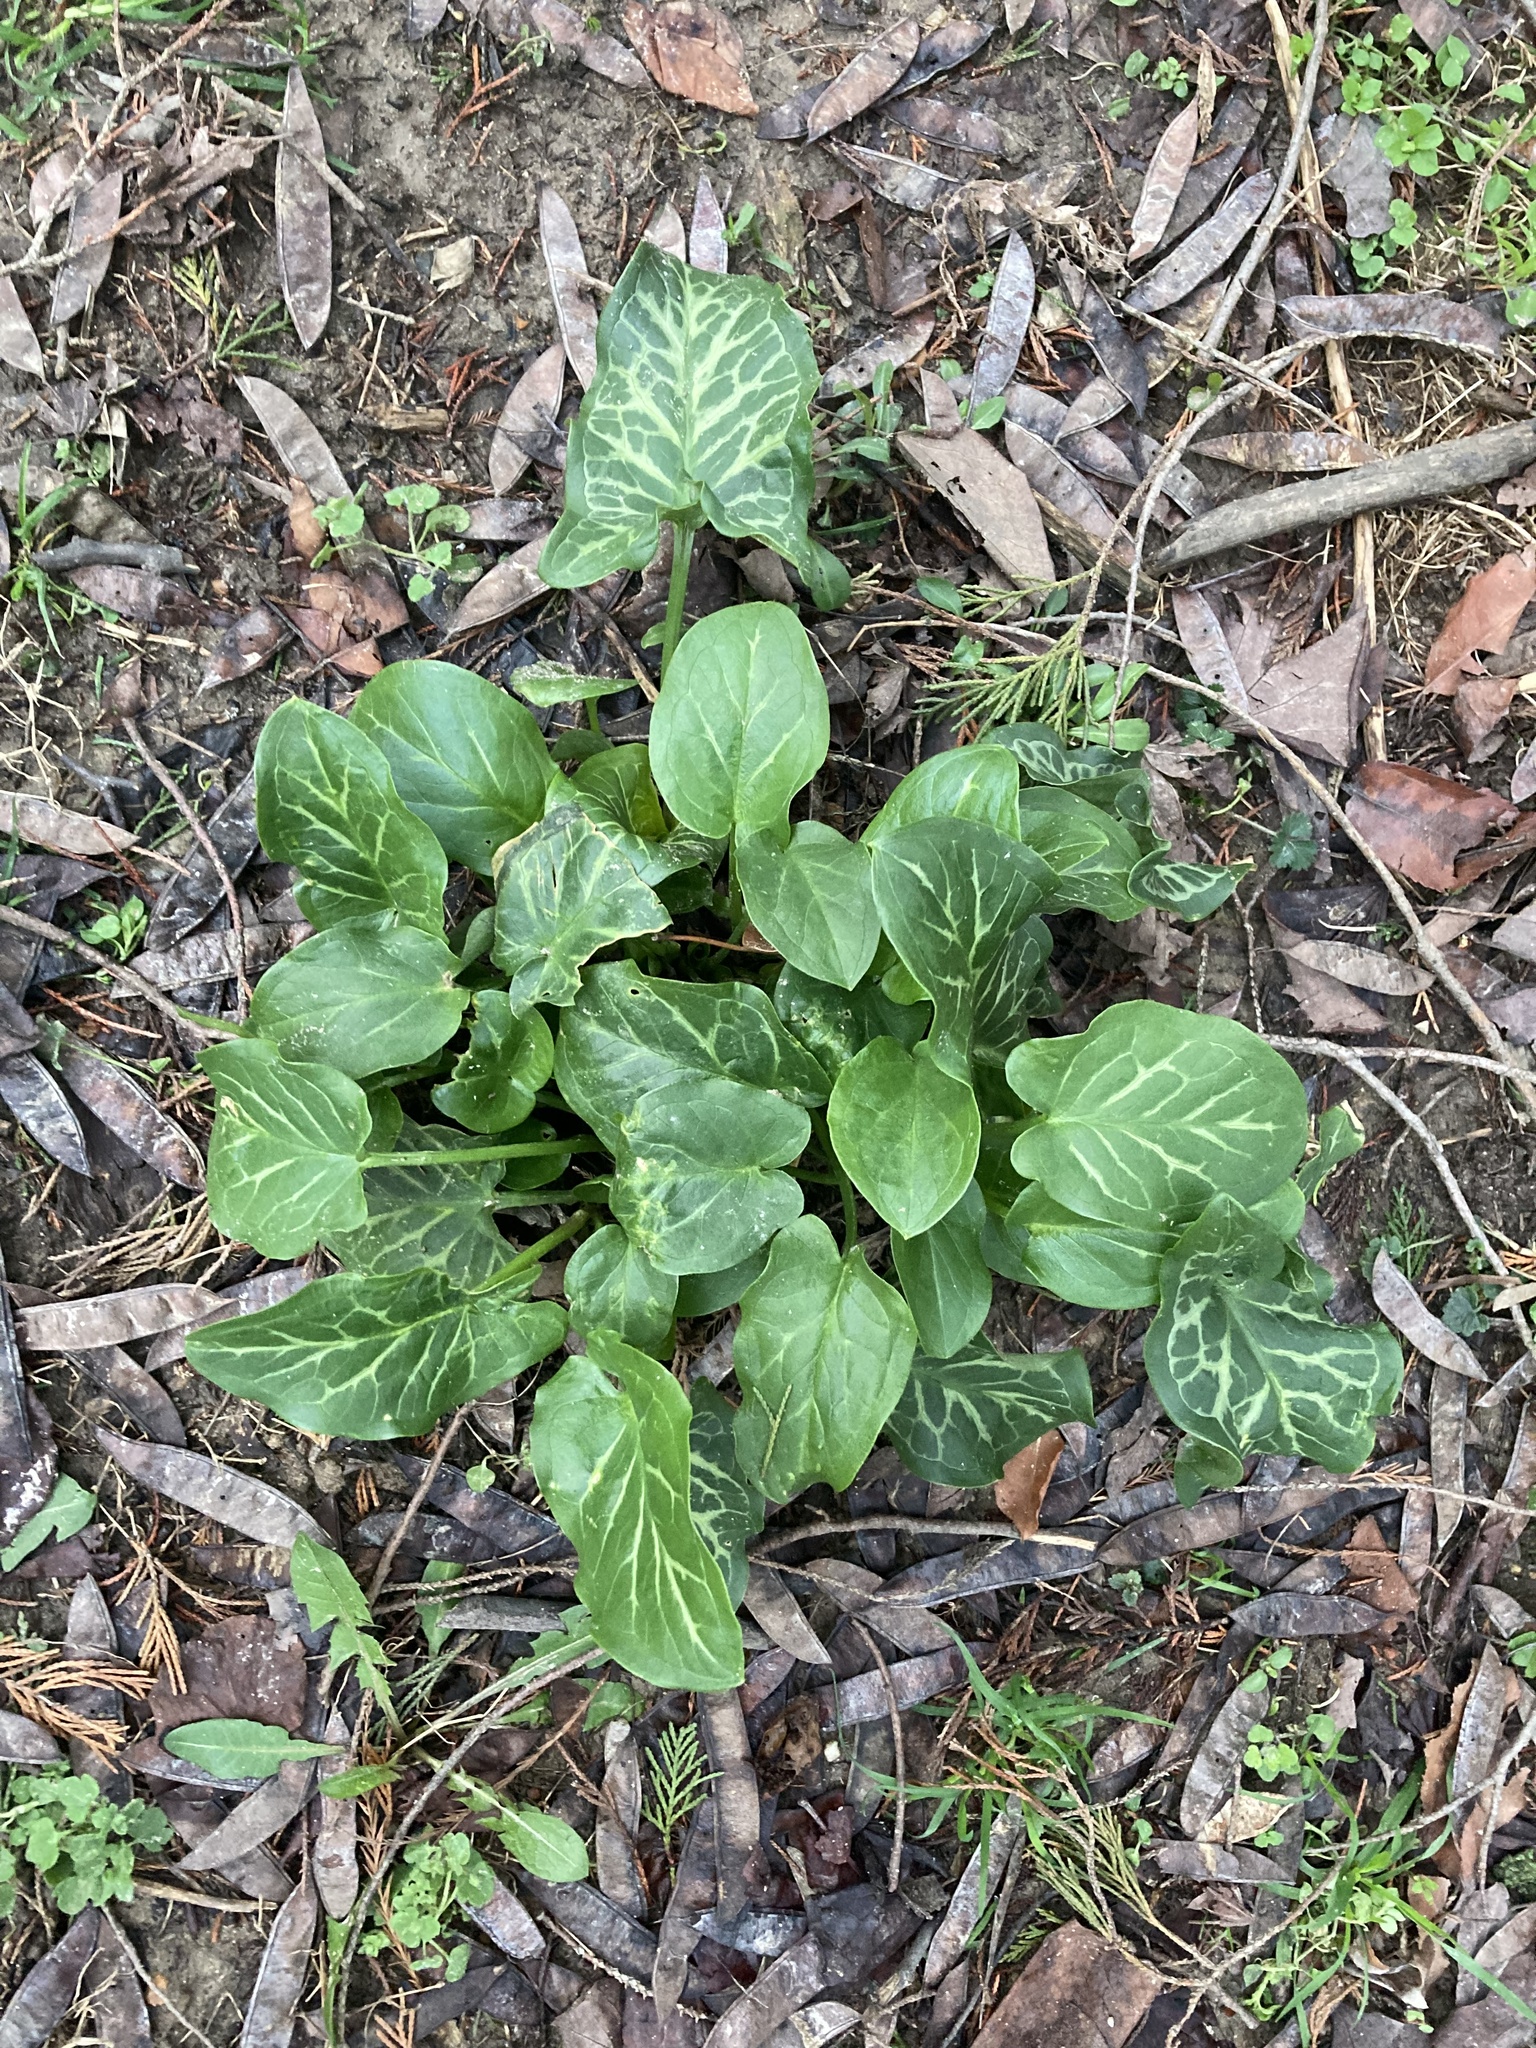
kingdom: Plantae
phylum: Tracheophyta
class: Liliopsida
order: Alismatales
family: Araceae
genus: Arum
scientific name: Arum italicum
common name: Italian lords-and-ladies
